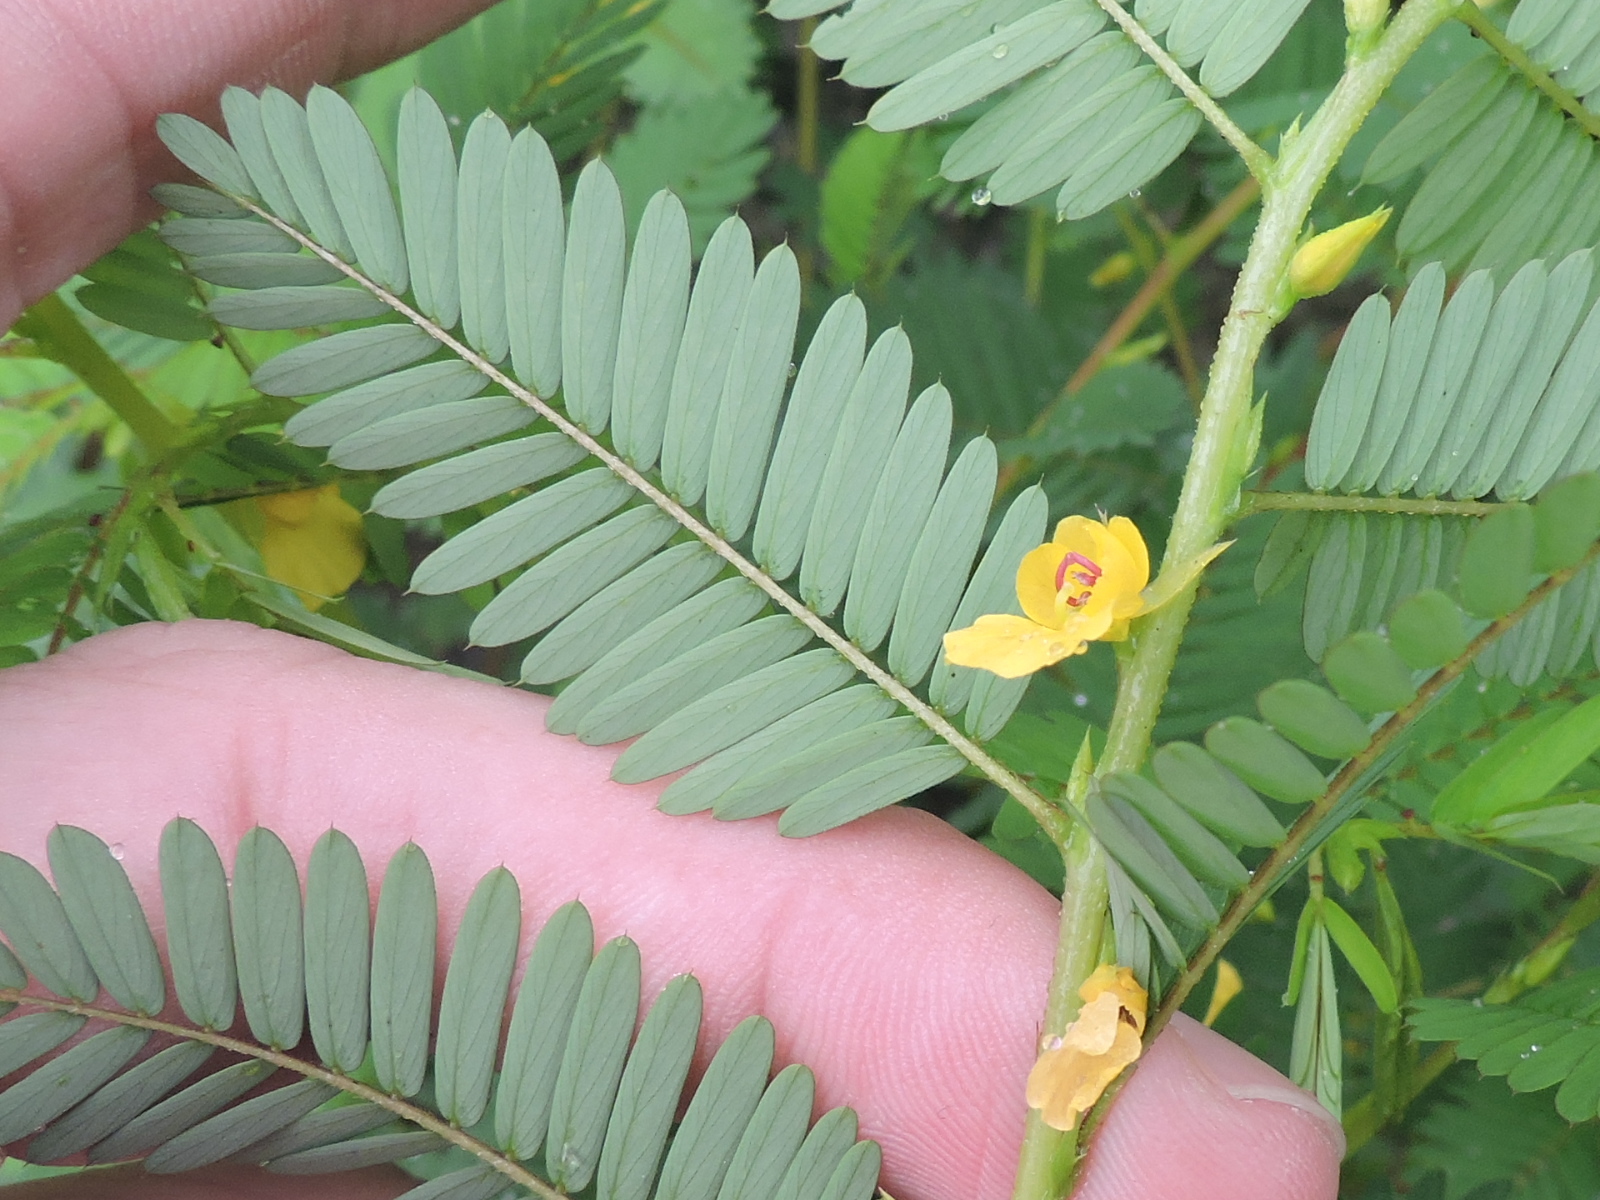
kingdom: Plantae
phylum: Tracheophyta
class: Magnoliopsida
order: Fabales
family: Fabaceae
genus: Chamaecrista
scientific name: Chamaecrista nictitans
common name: Sensitive cassia
